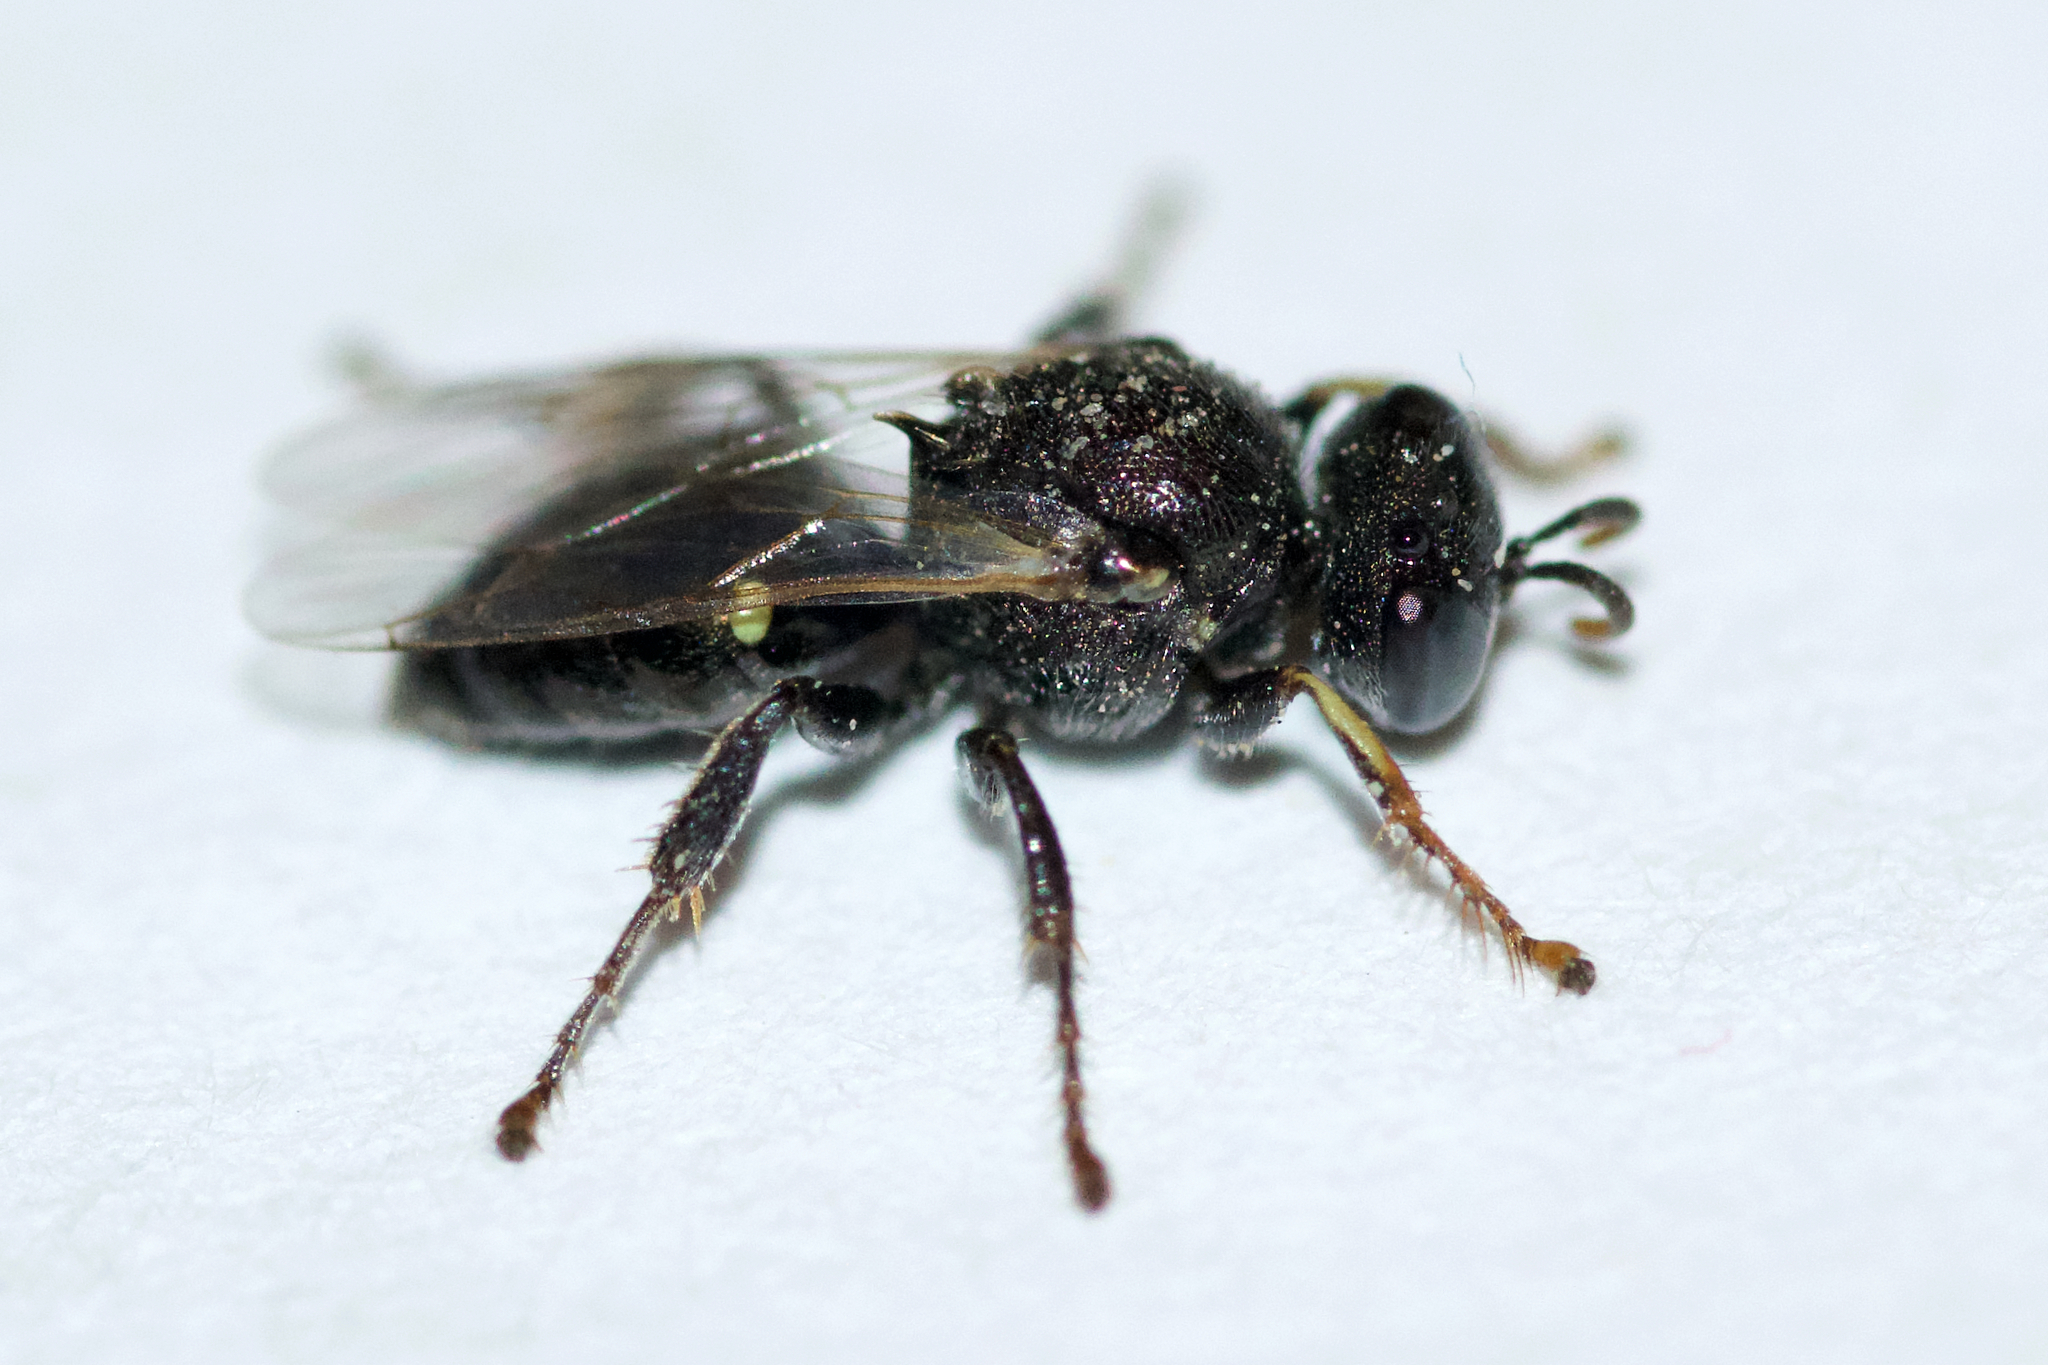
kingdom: Animalia
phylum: Arthropoda
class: Insecta
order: Hymenoptera
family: Crabronidae
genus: Oxybelus
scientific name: Oxybelus bipunctatus
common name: Square-headed wasp
